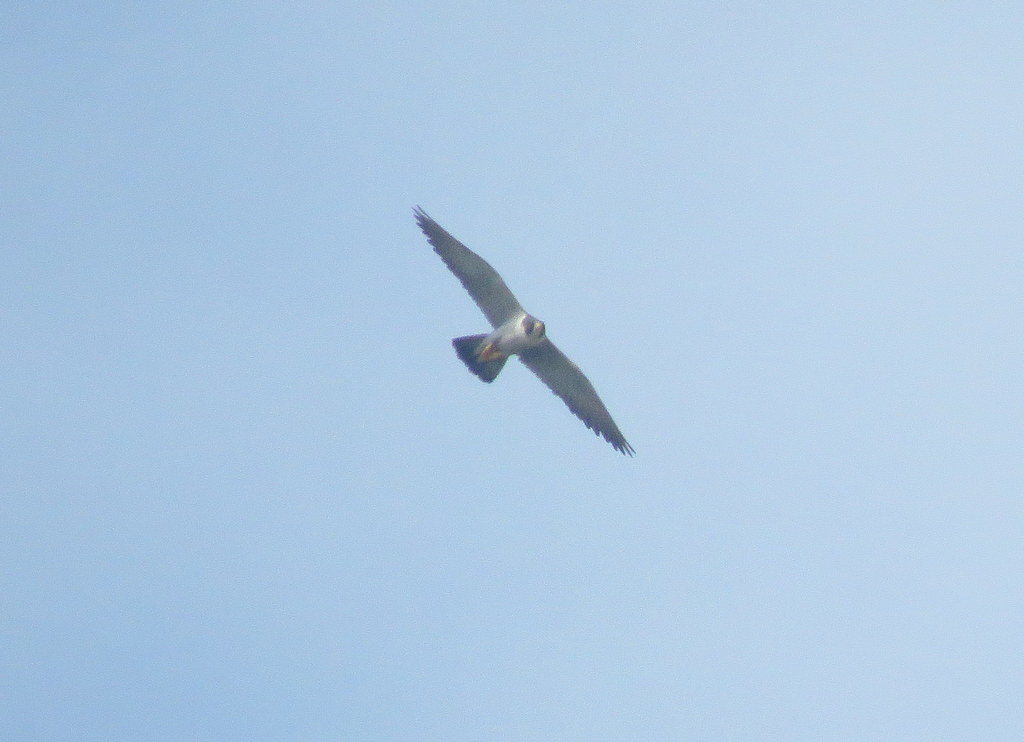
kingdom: Animalia
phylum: Chordata
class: Aves
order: Falconiformes
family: Falconidae
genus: Falco
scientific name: Falco peregrinus
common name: Peregrine falcon
